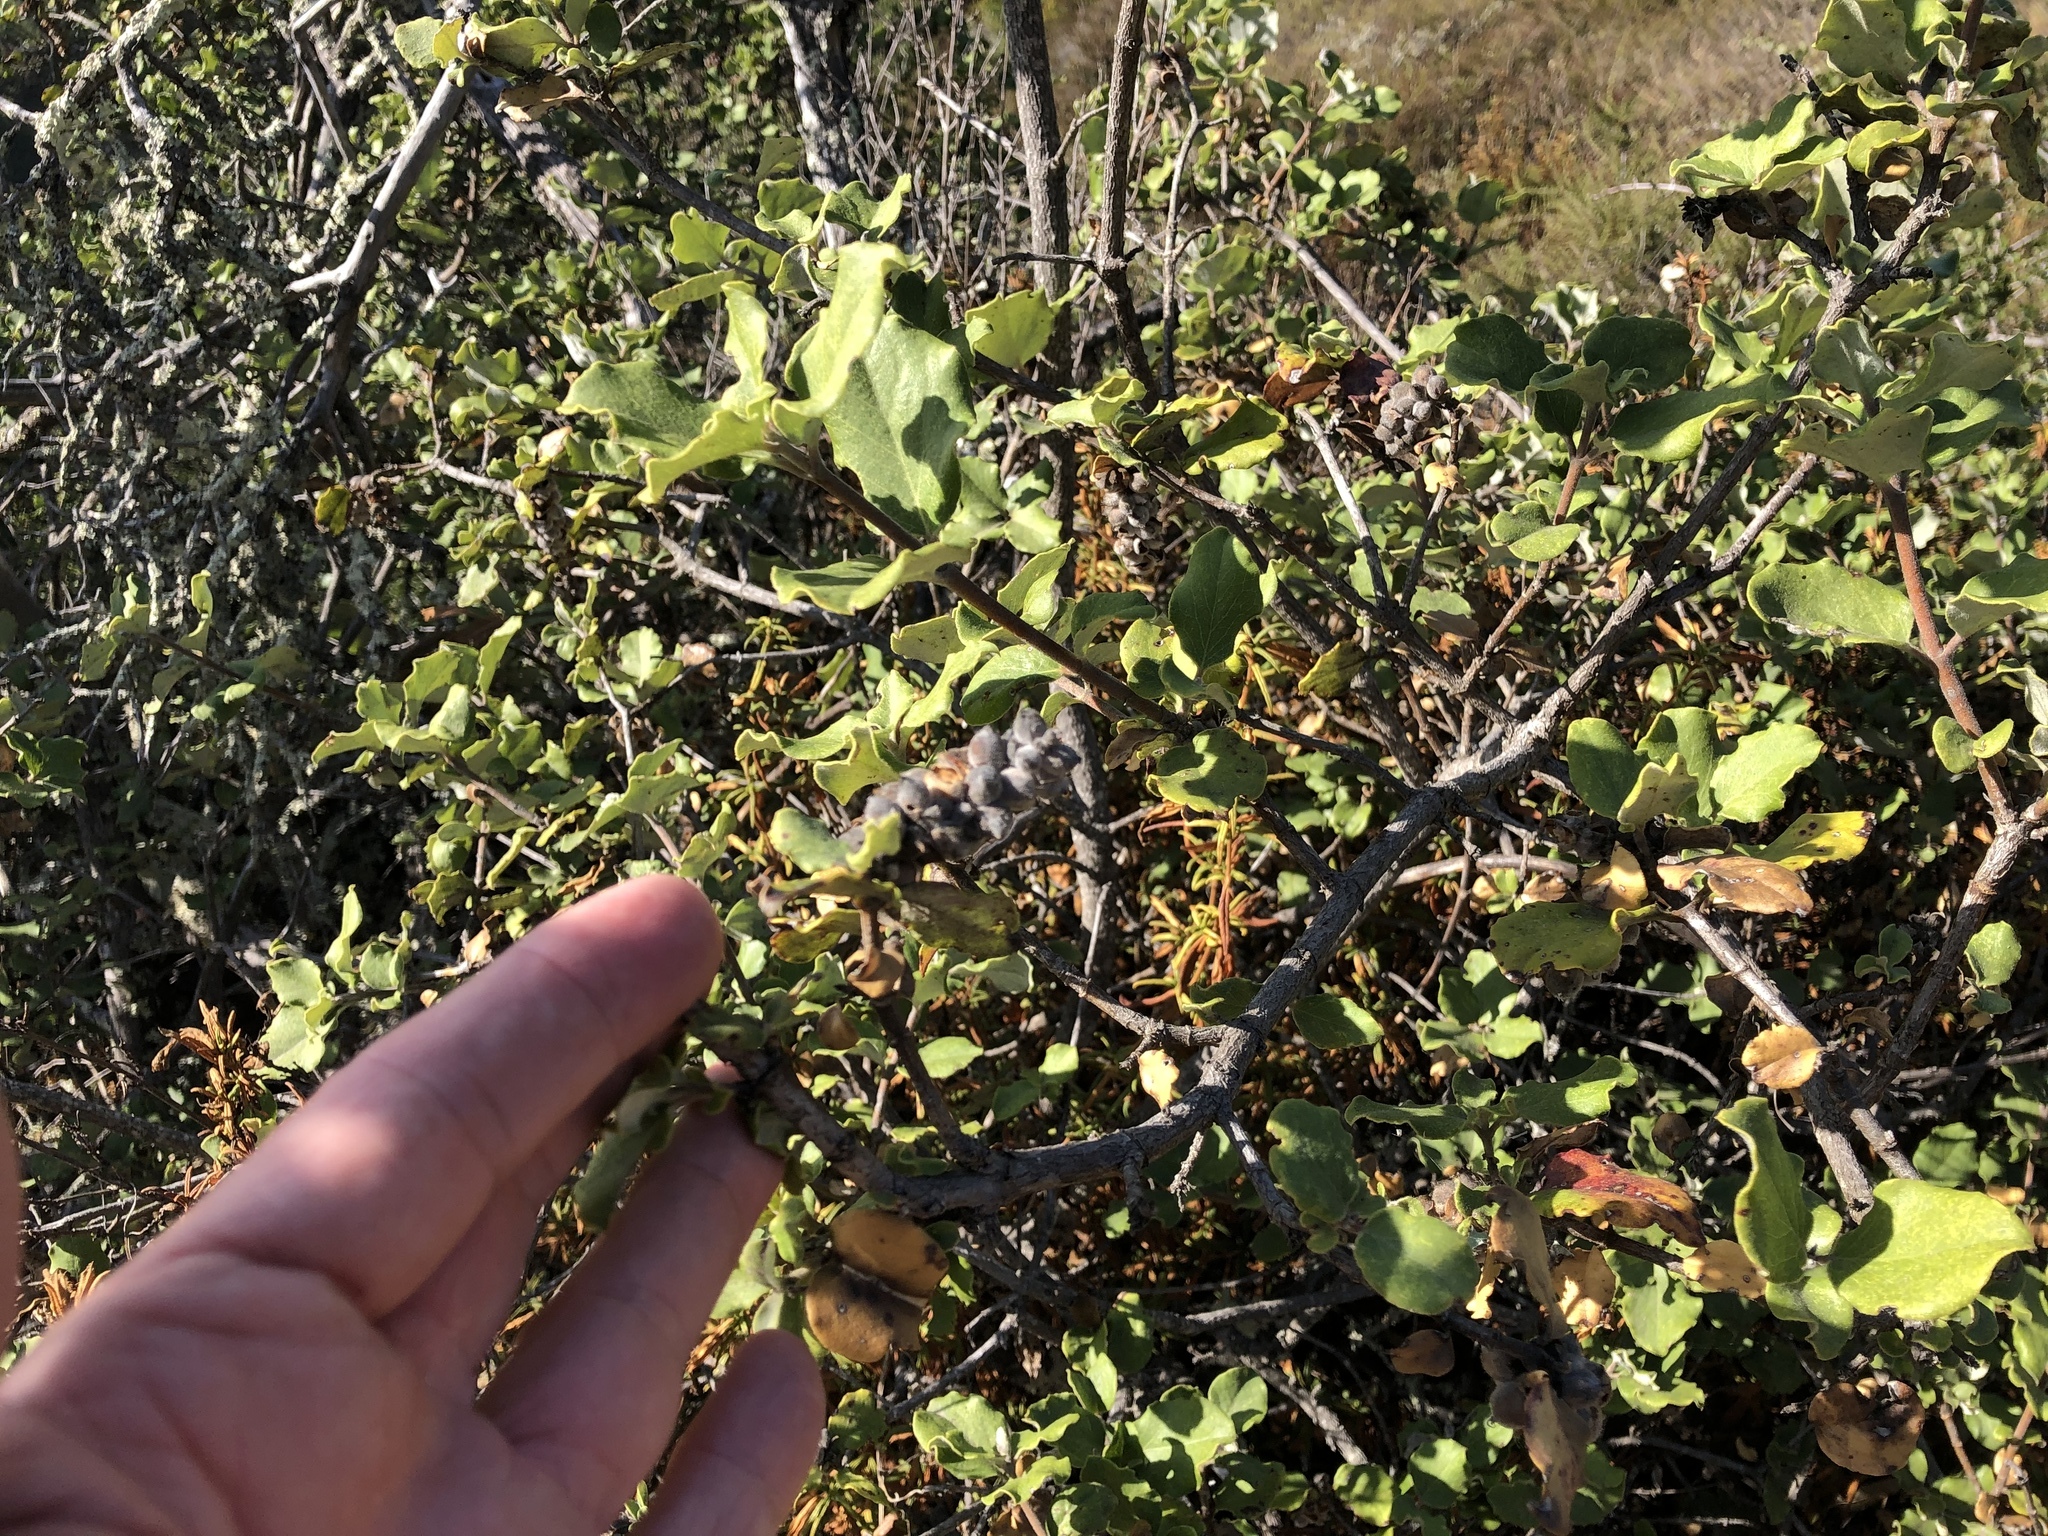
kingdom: Plantae
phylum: Tracheophyta
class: Magnoliopsida
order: Garryales
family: Garryaceae
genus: Garrya
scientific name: Garrya elliptica
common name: Silk-tassel
